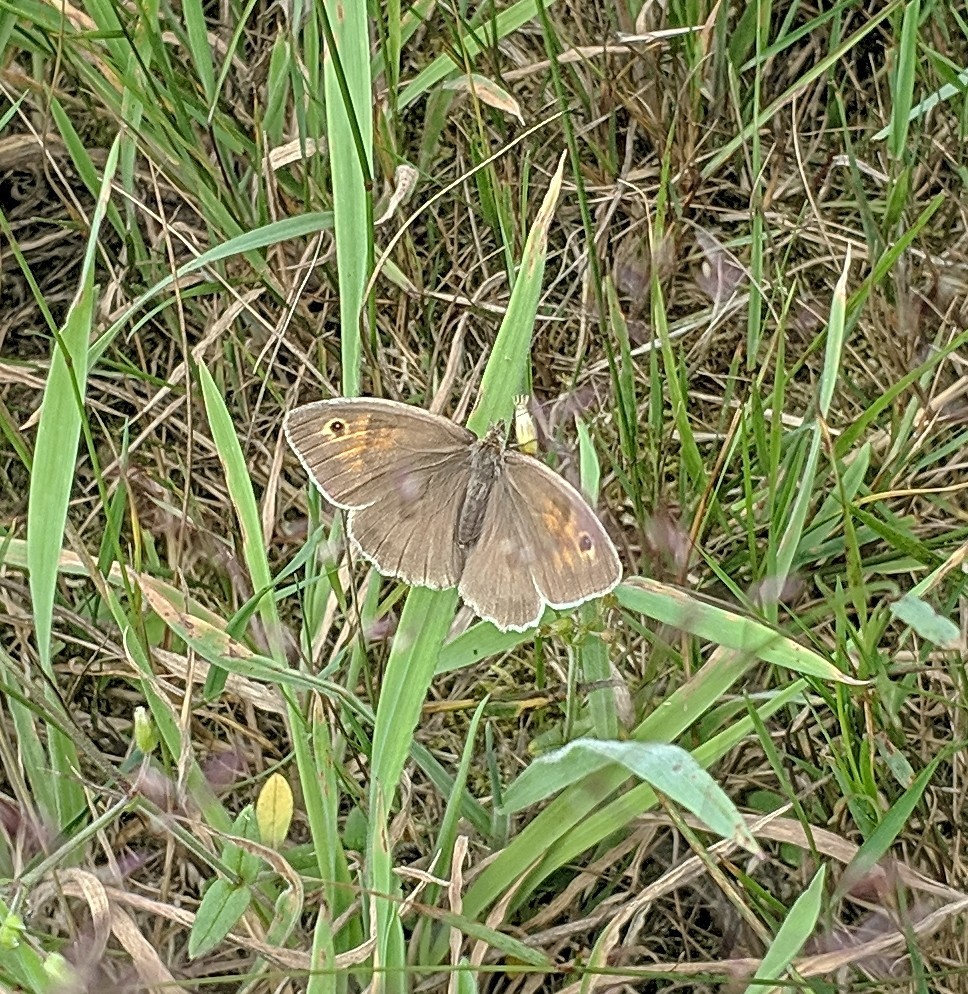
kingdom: Animalia
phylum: Arthropoda
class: Insecta
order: Lepidoptera
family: Nymphalidae
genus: Maniola
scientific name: Maniola jurtina
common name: Meadow brown
